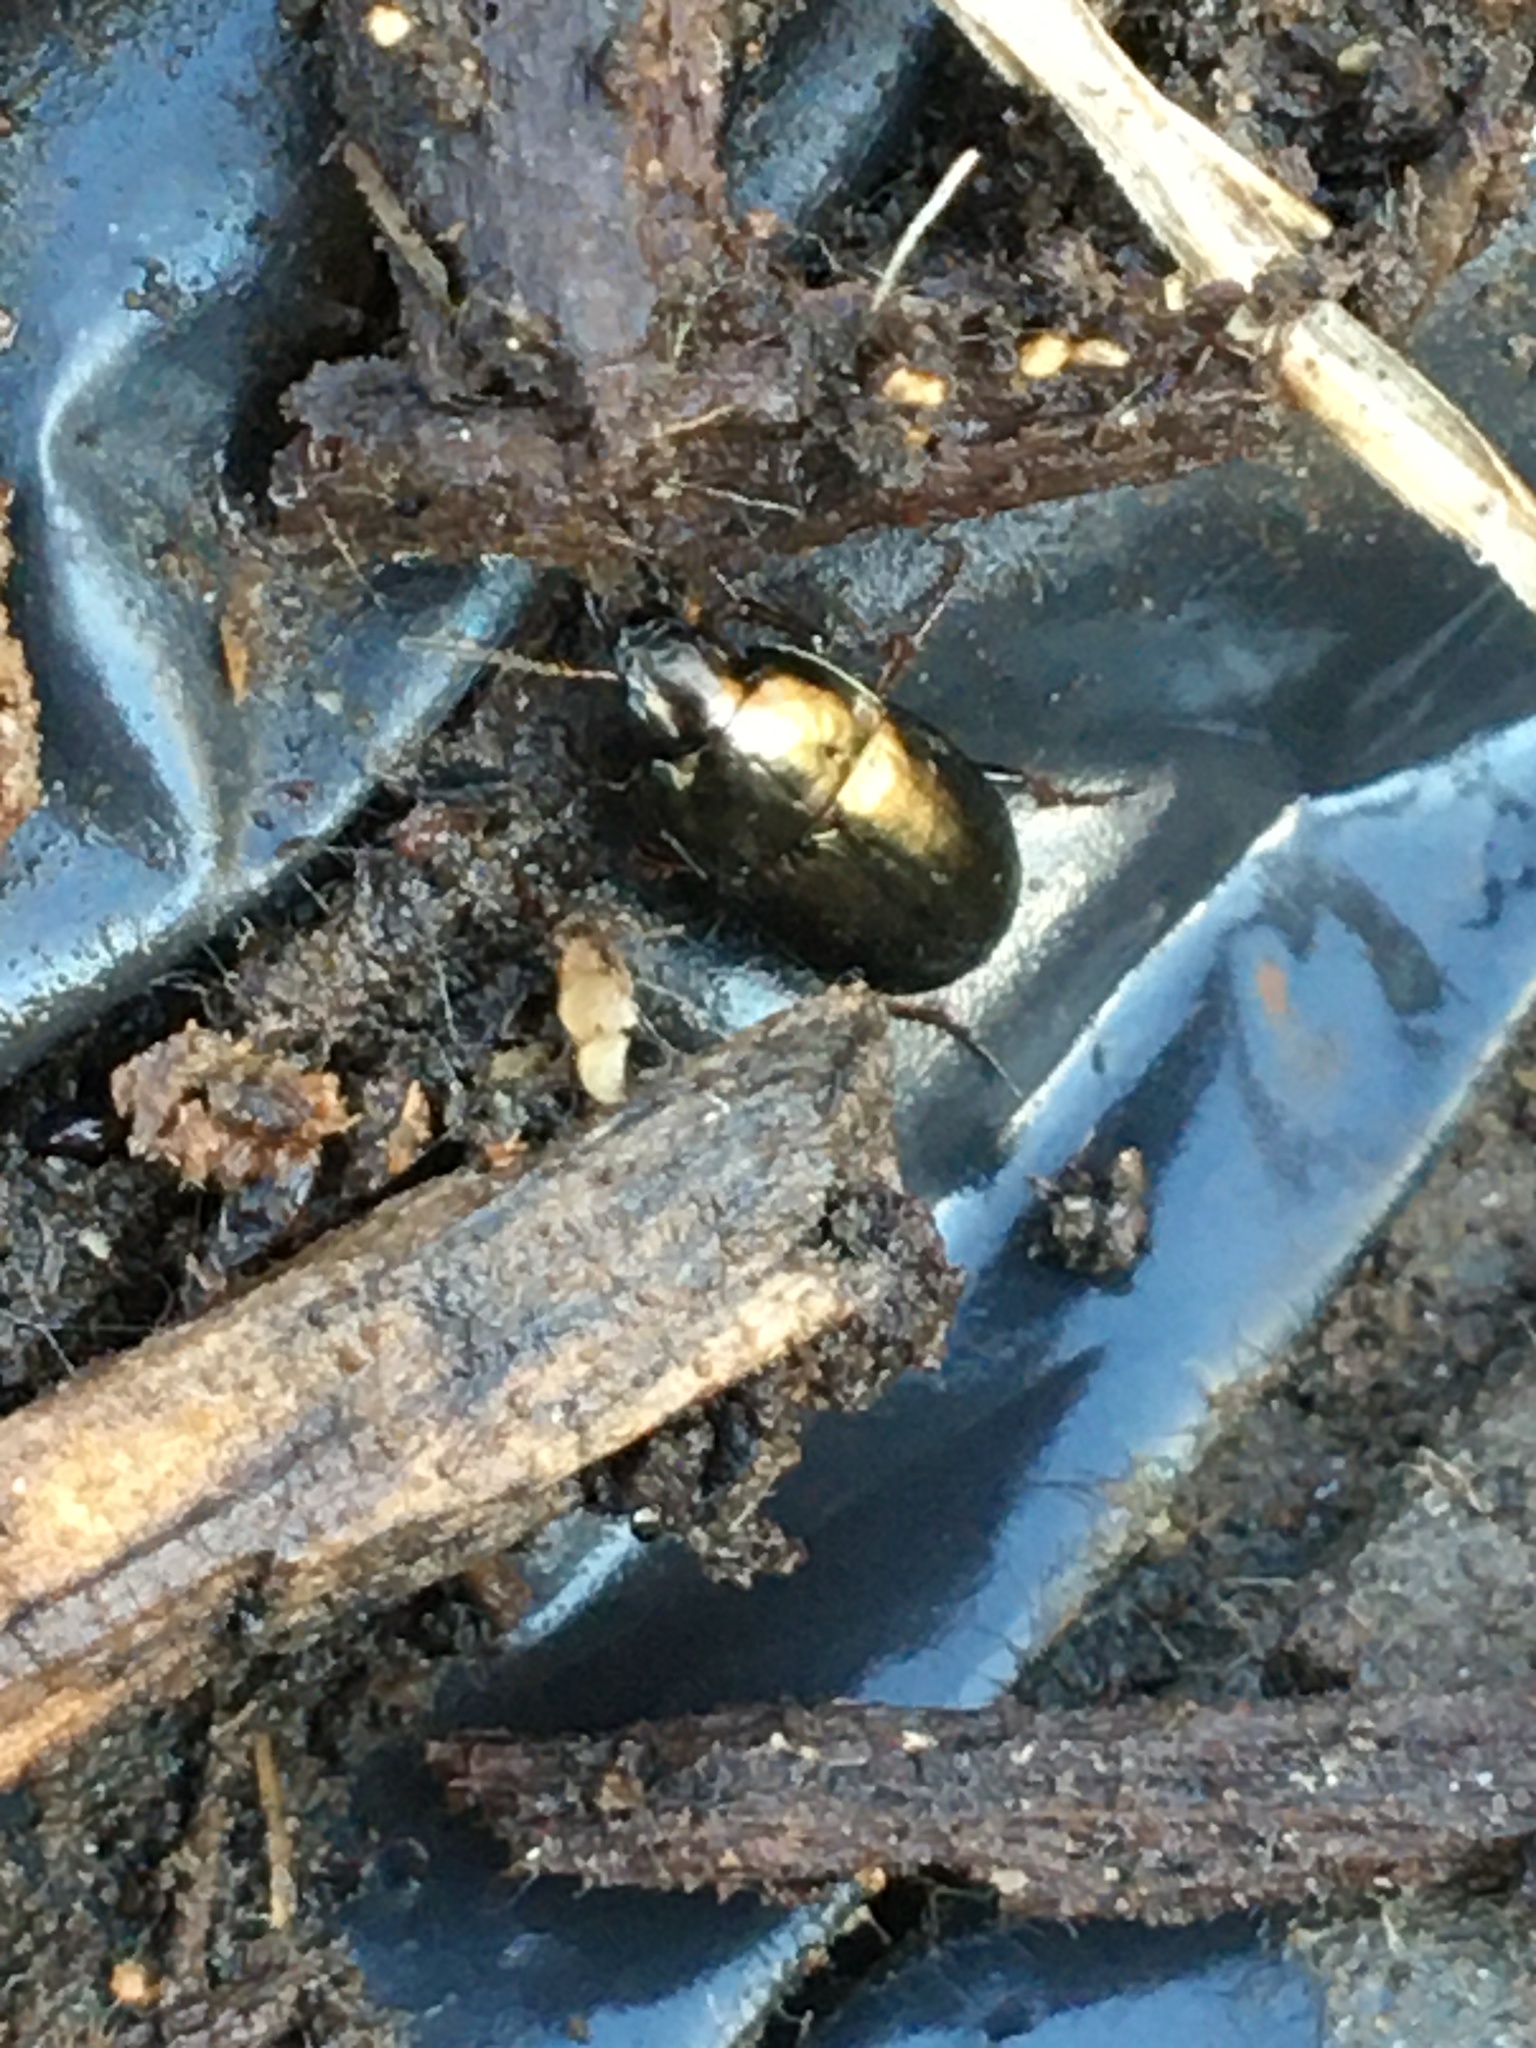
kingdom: Animalia
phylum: Arthropoda
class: Insecta
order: Coleoptera
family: Carabidae
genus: Amara
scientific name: Amara
